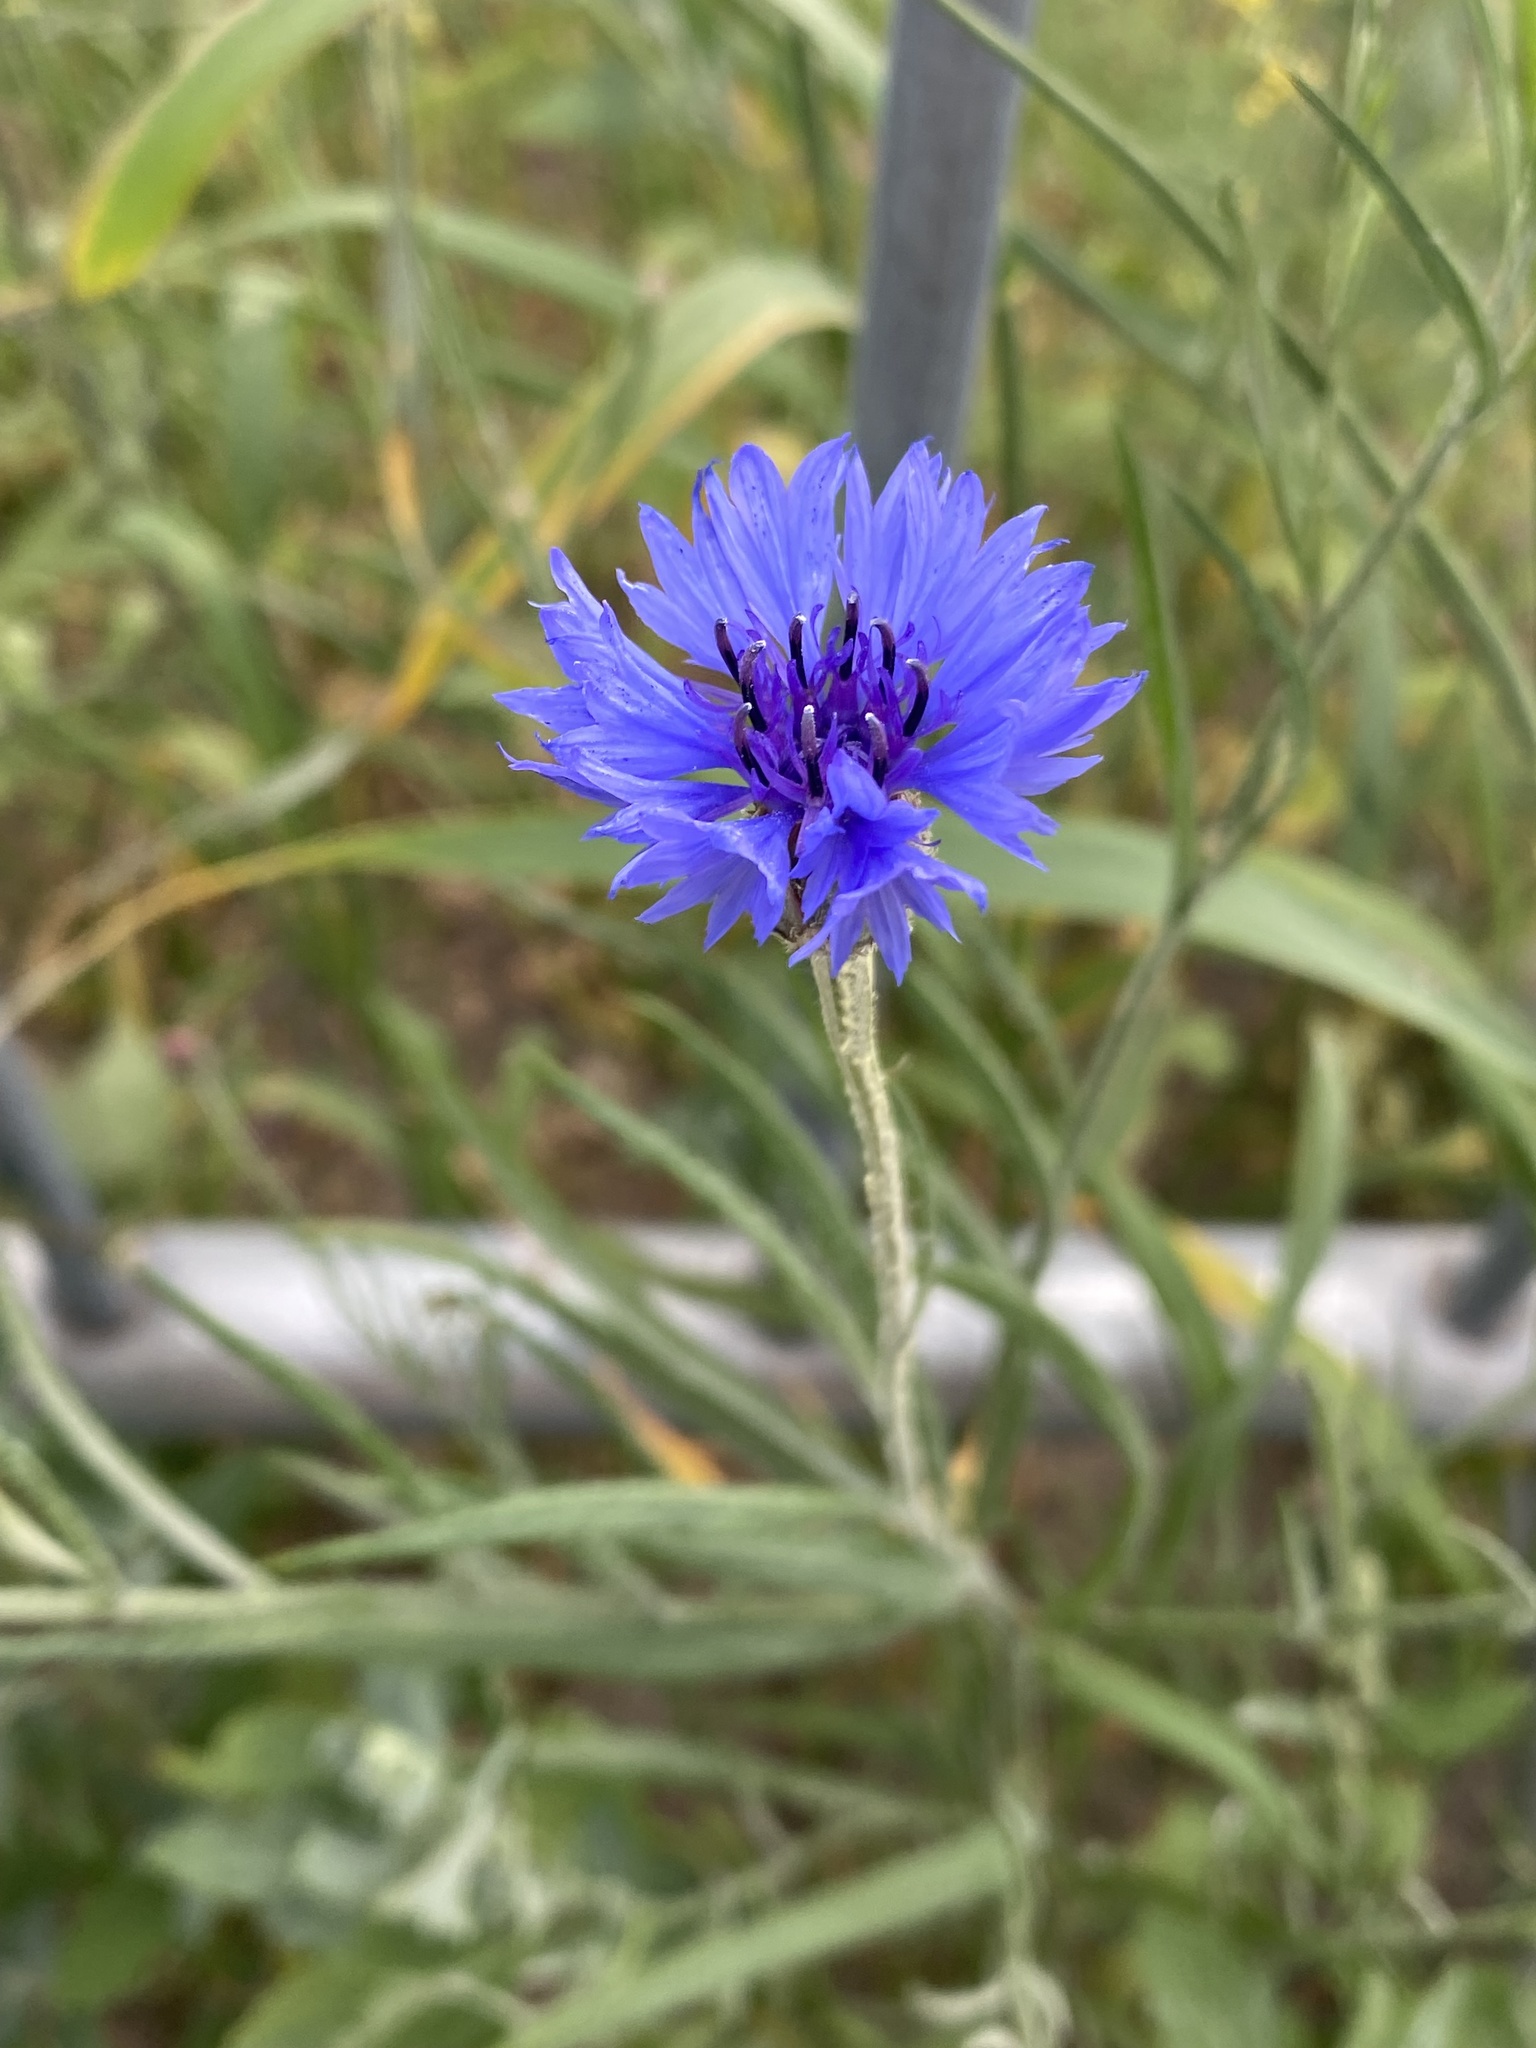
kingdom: Plantae
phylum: Tracheophyta
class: Magnoliopsida
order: Asterales
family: Asteraceae
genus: Centaurea
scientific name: Centaurea cyanus
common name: Cornflower
